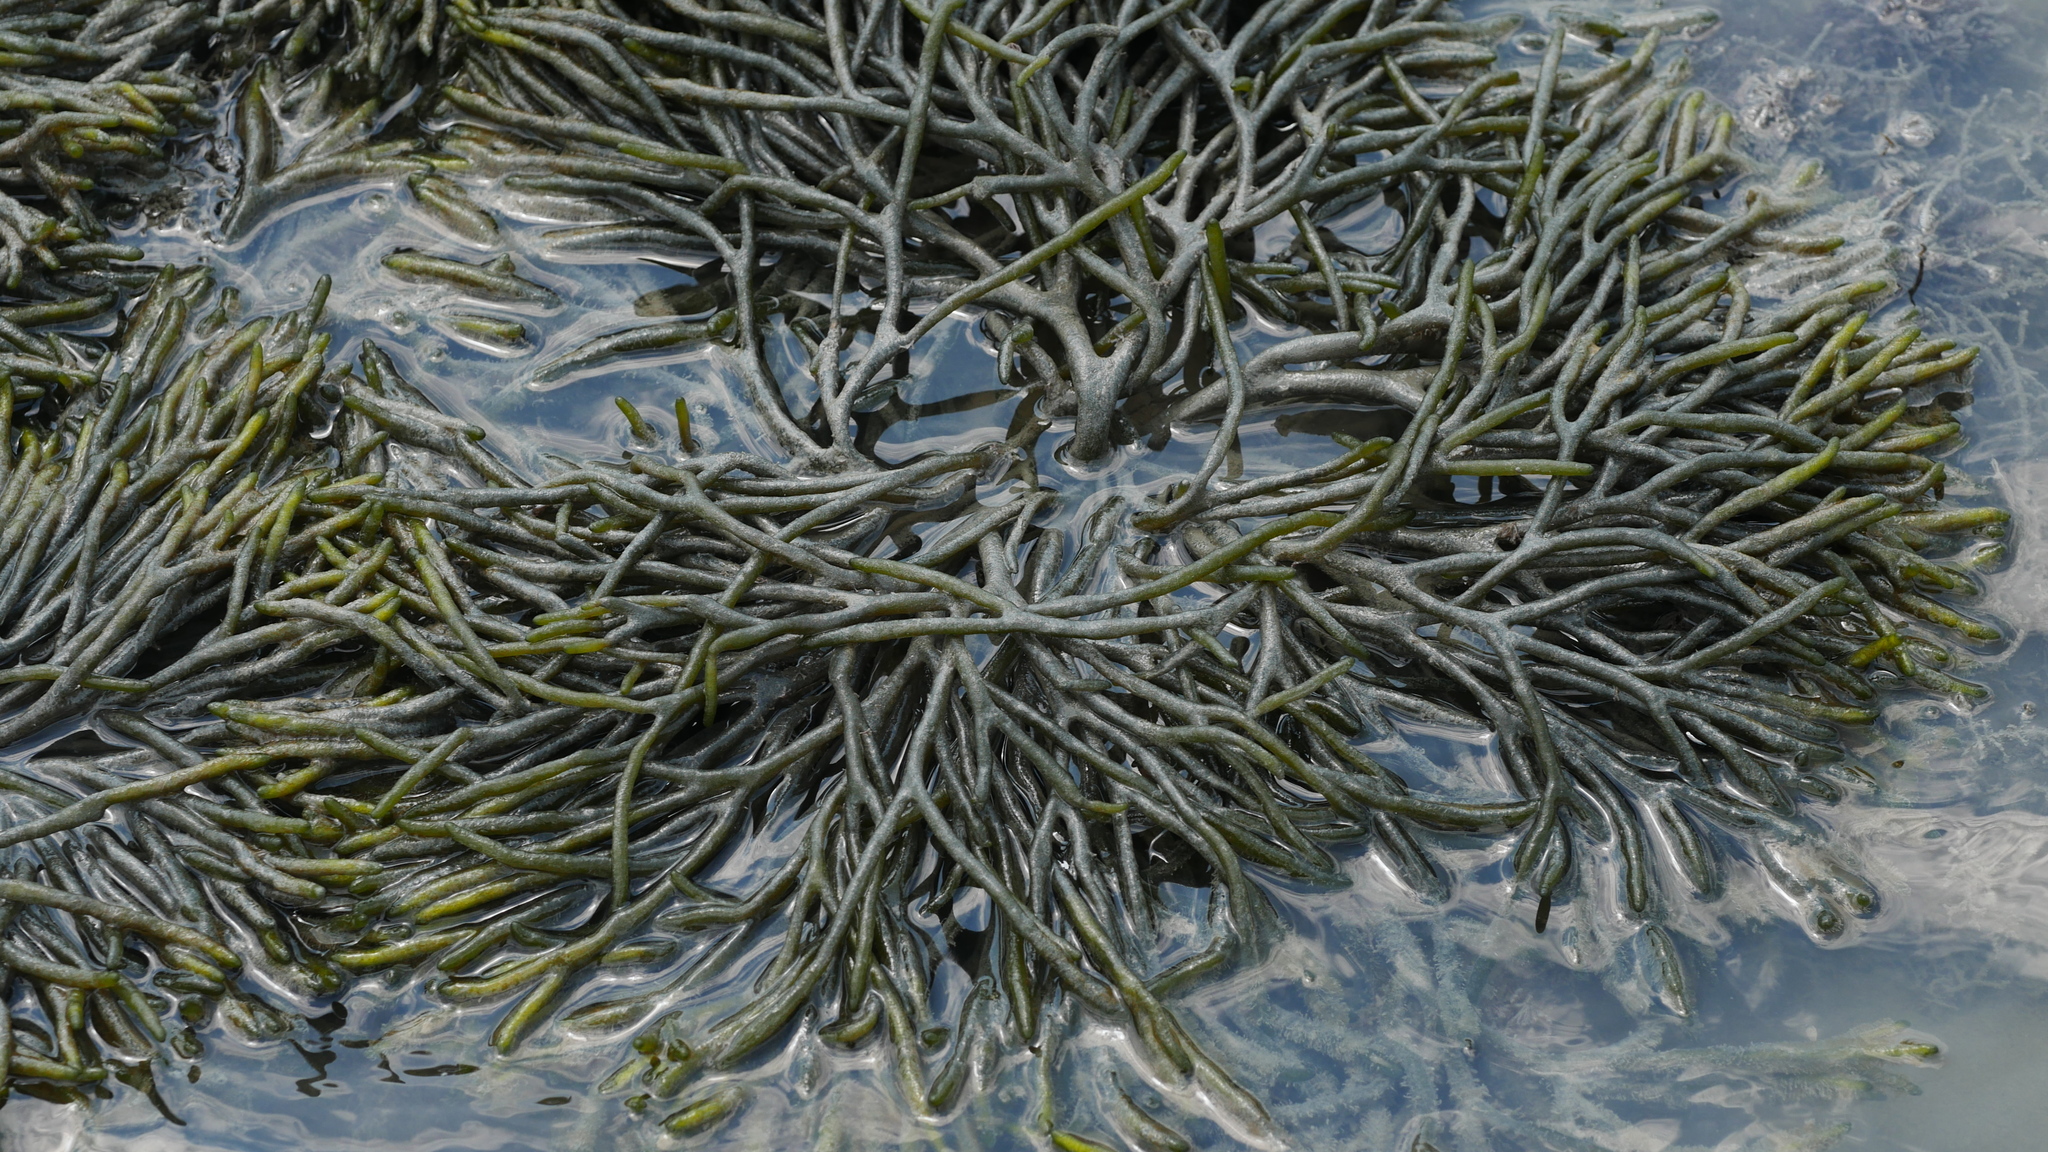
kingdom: Plantae
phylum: Chlorophyta
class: Ulvophyceae
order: Bryopsidales
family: Codiaceae
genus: Codium
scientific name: Codium fragile
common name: Dead man's fingers
